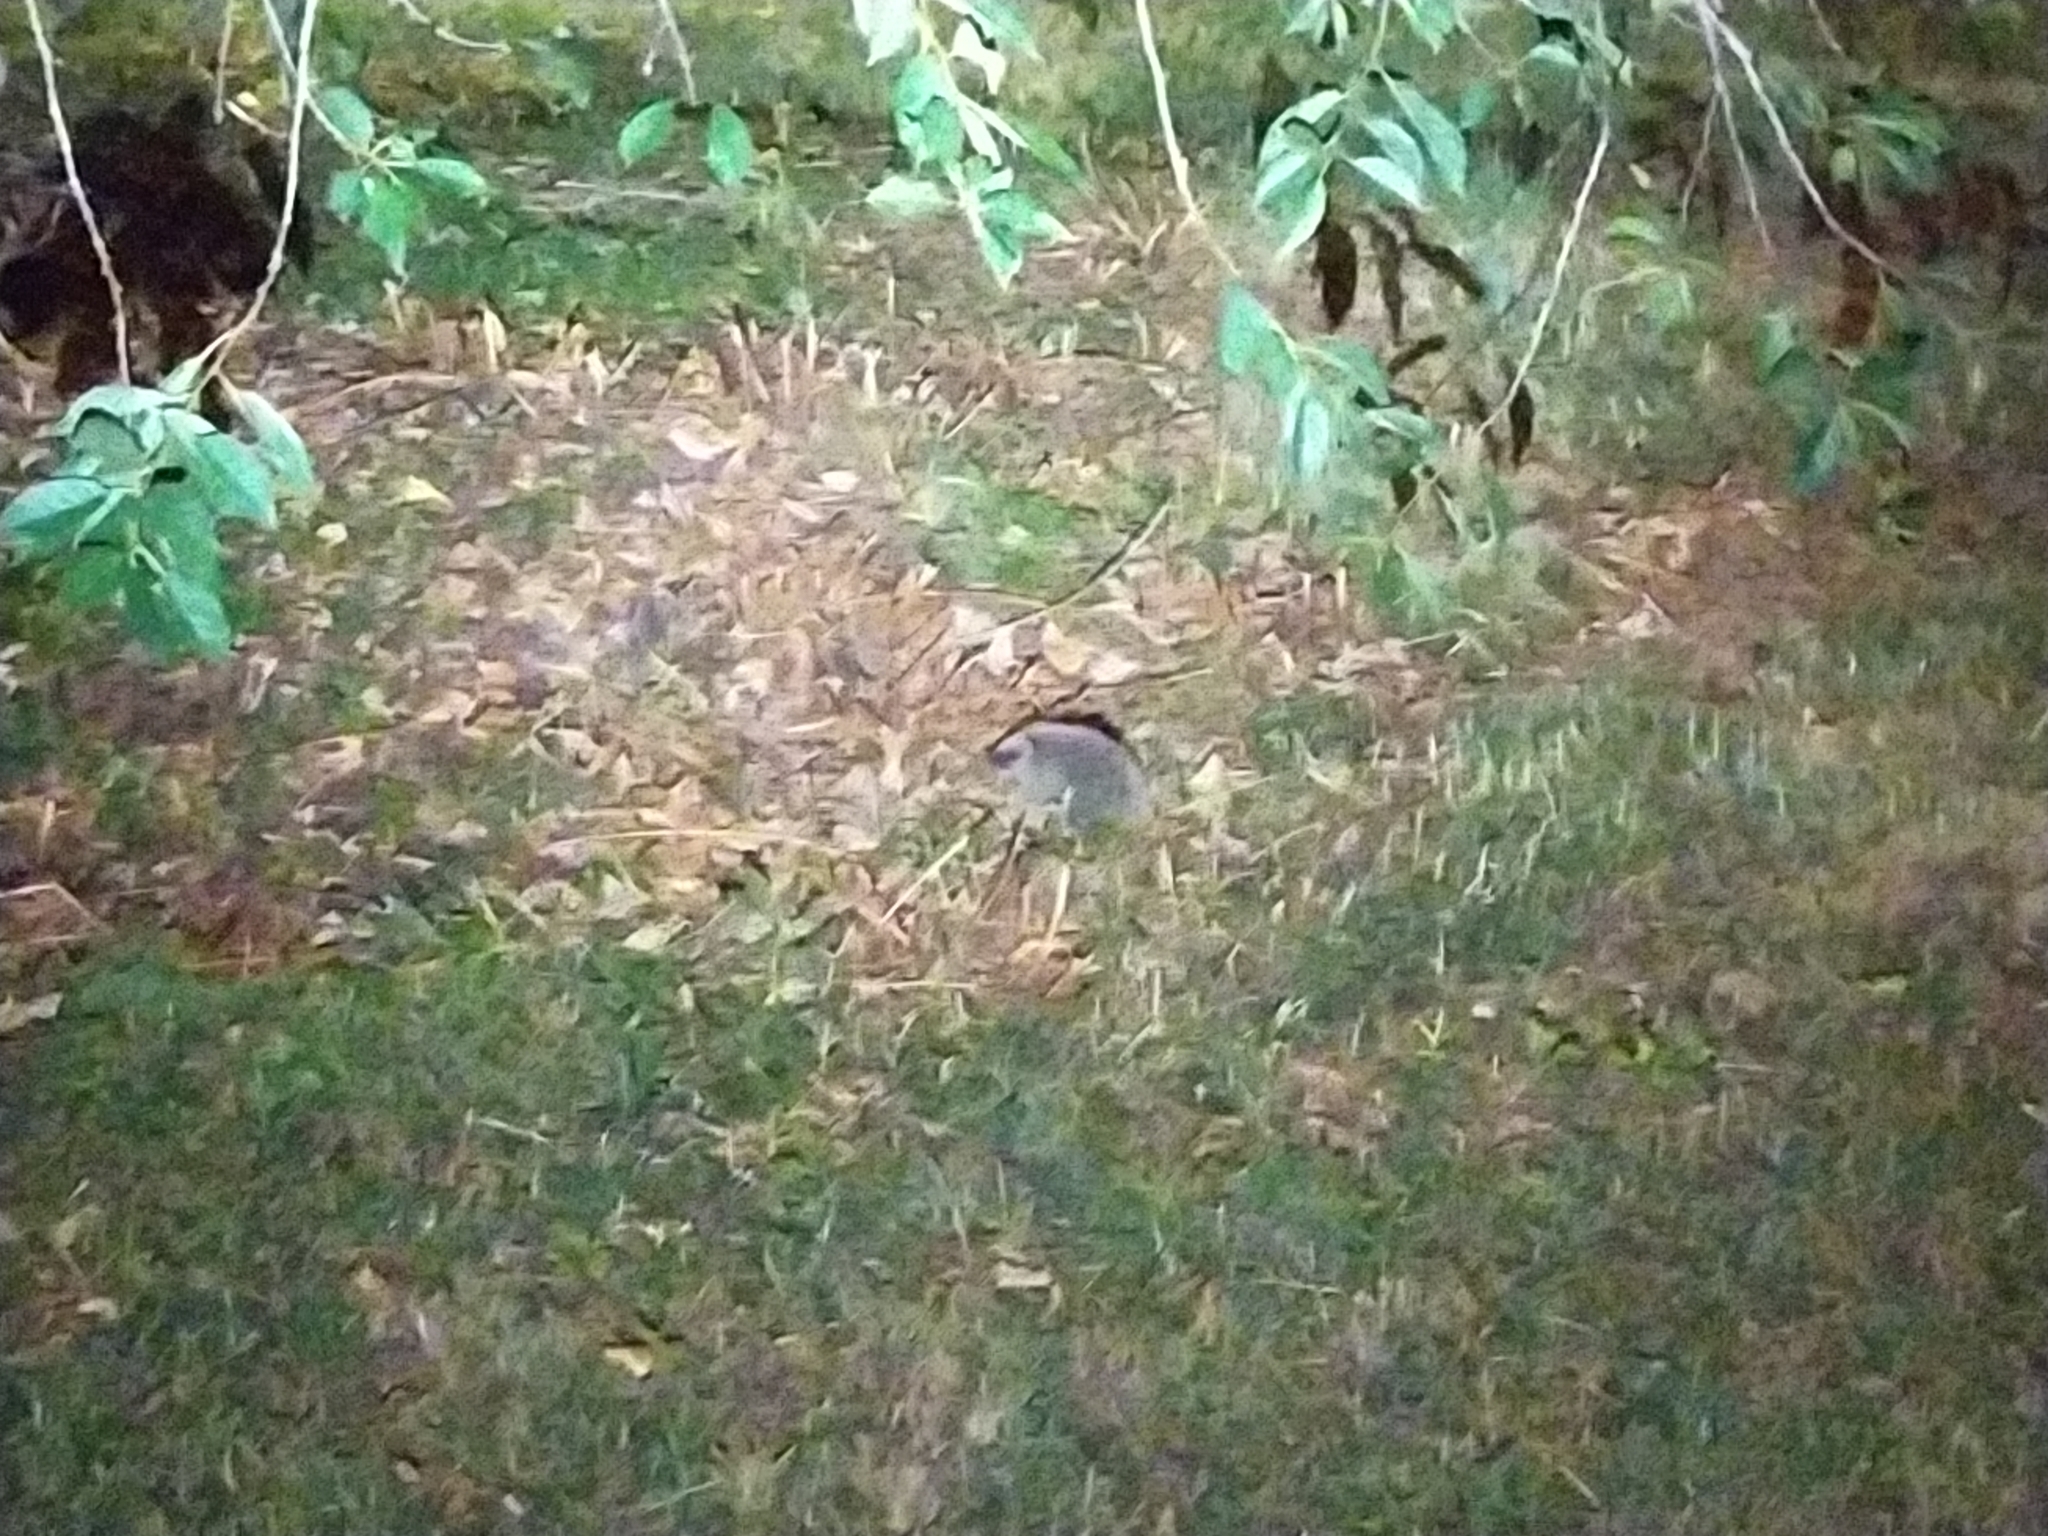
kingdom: Animalia
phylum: Chordata
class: Mammalia
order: Erinaceomorpha
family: Erinaceidae
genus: Erinaceus
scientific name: Erinaceus europaeus
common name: West european hedgehog
